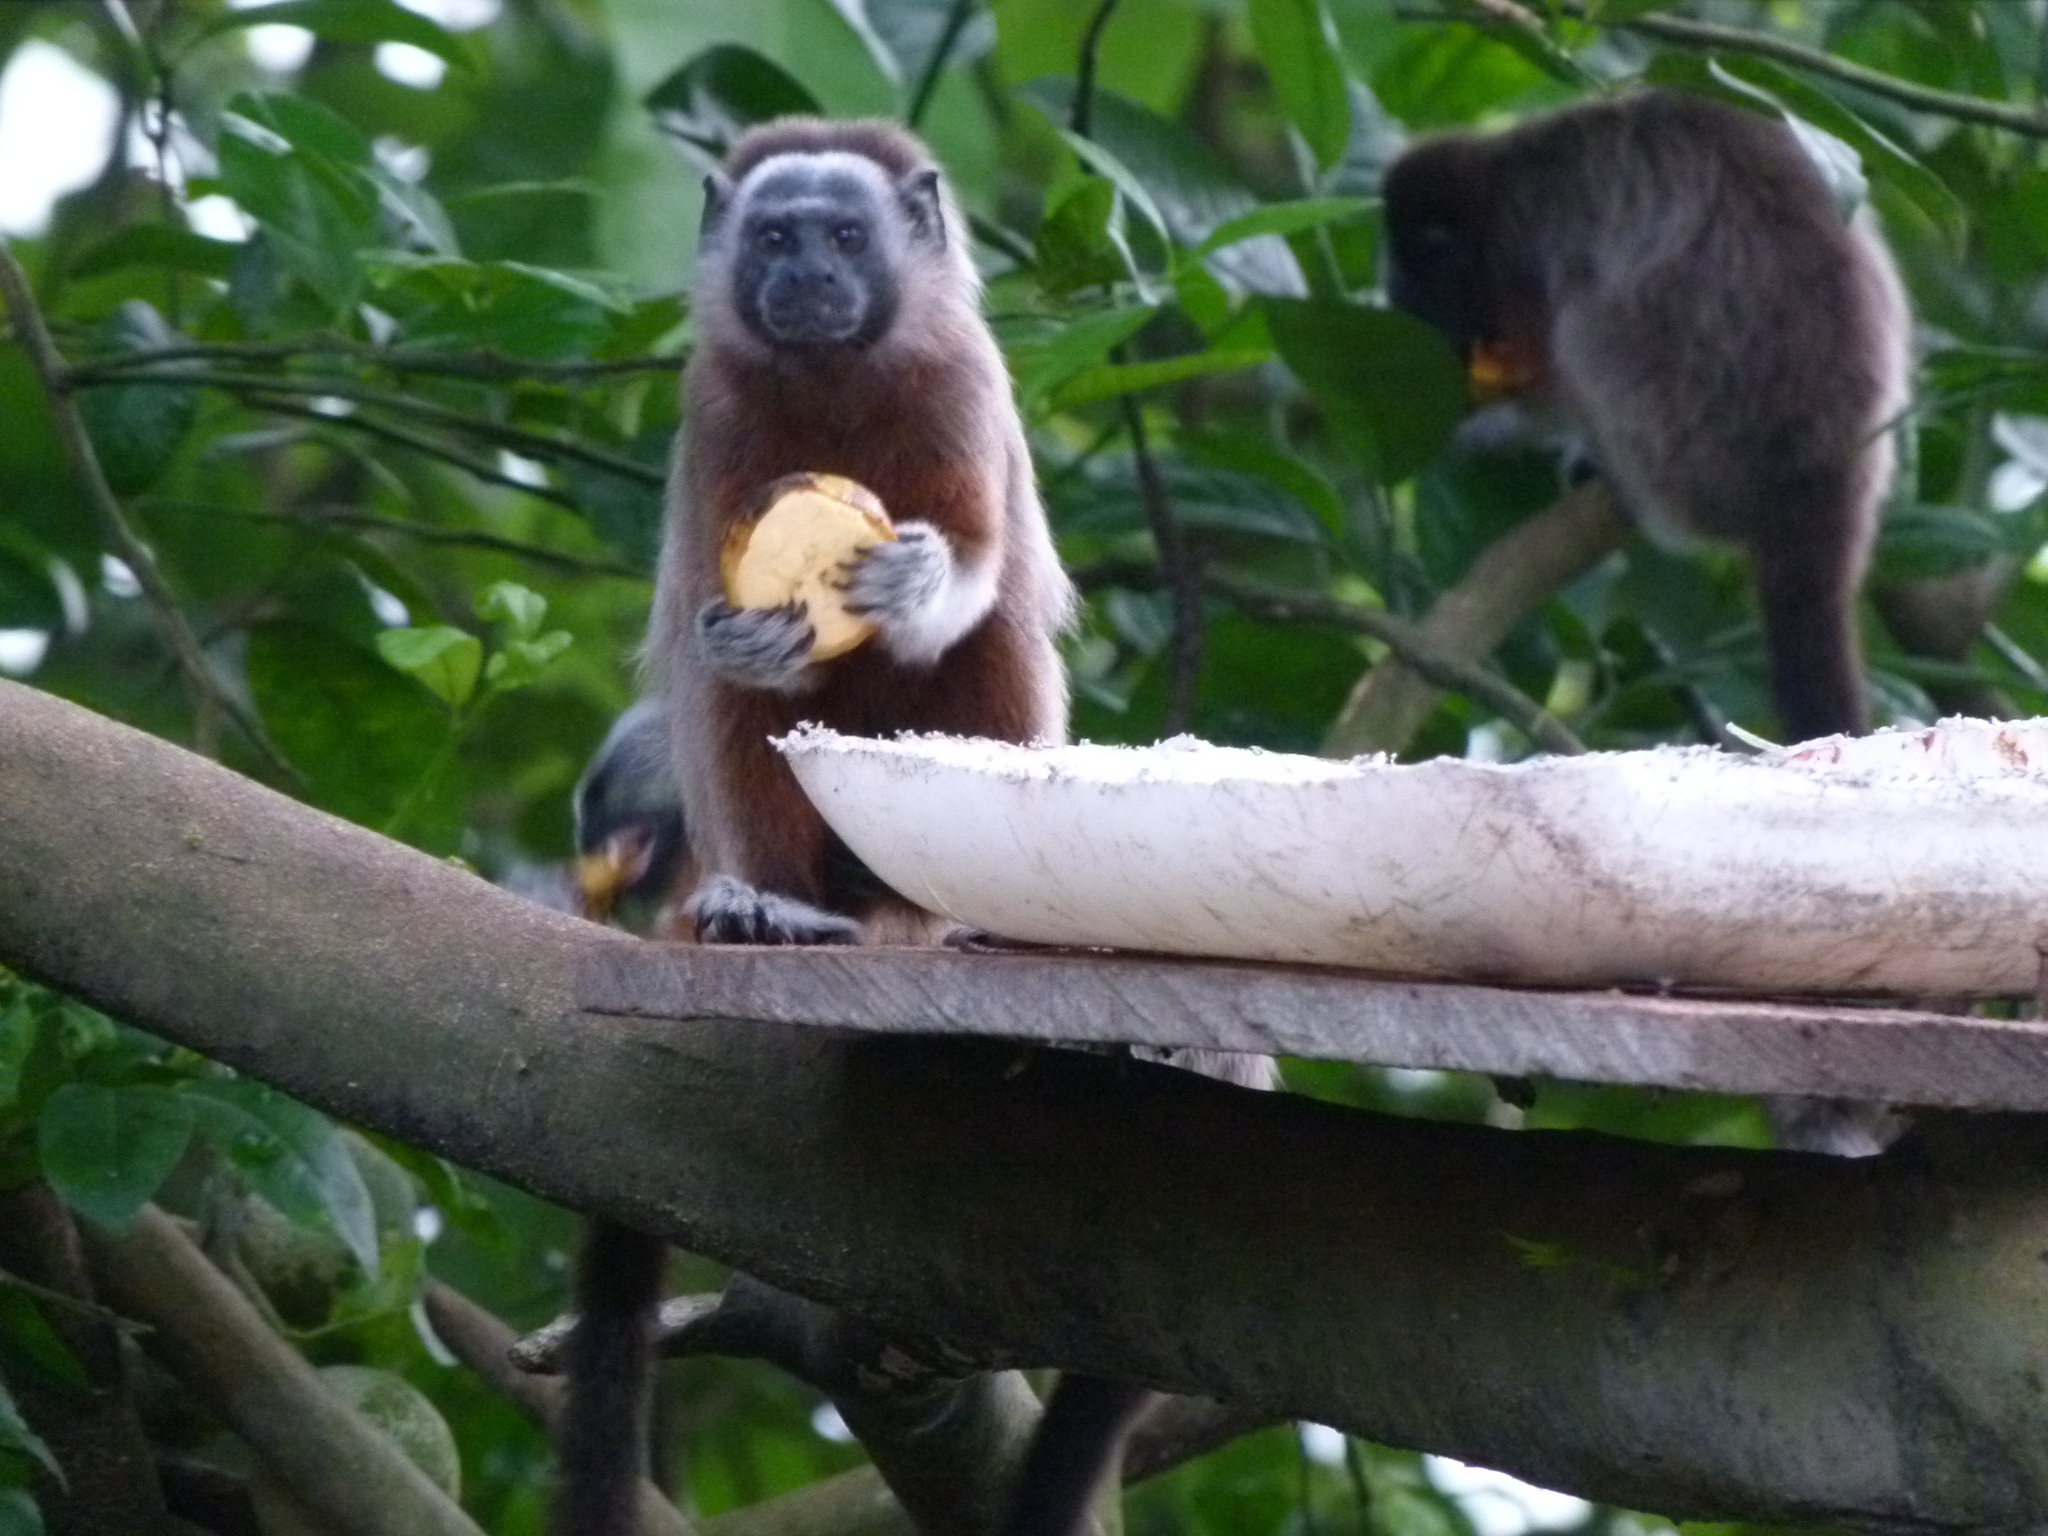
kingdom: Animalia
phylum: Chordata
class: Mammalia
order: Primates
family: Callitrichidae
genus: Saguinus
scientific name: Saguinus leucopus
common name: White-footed tamarin
